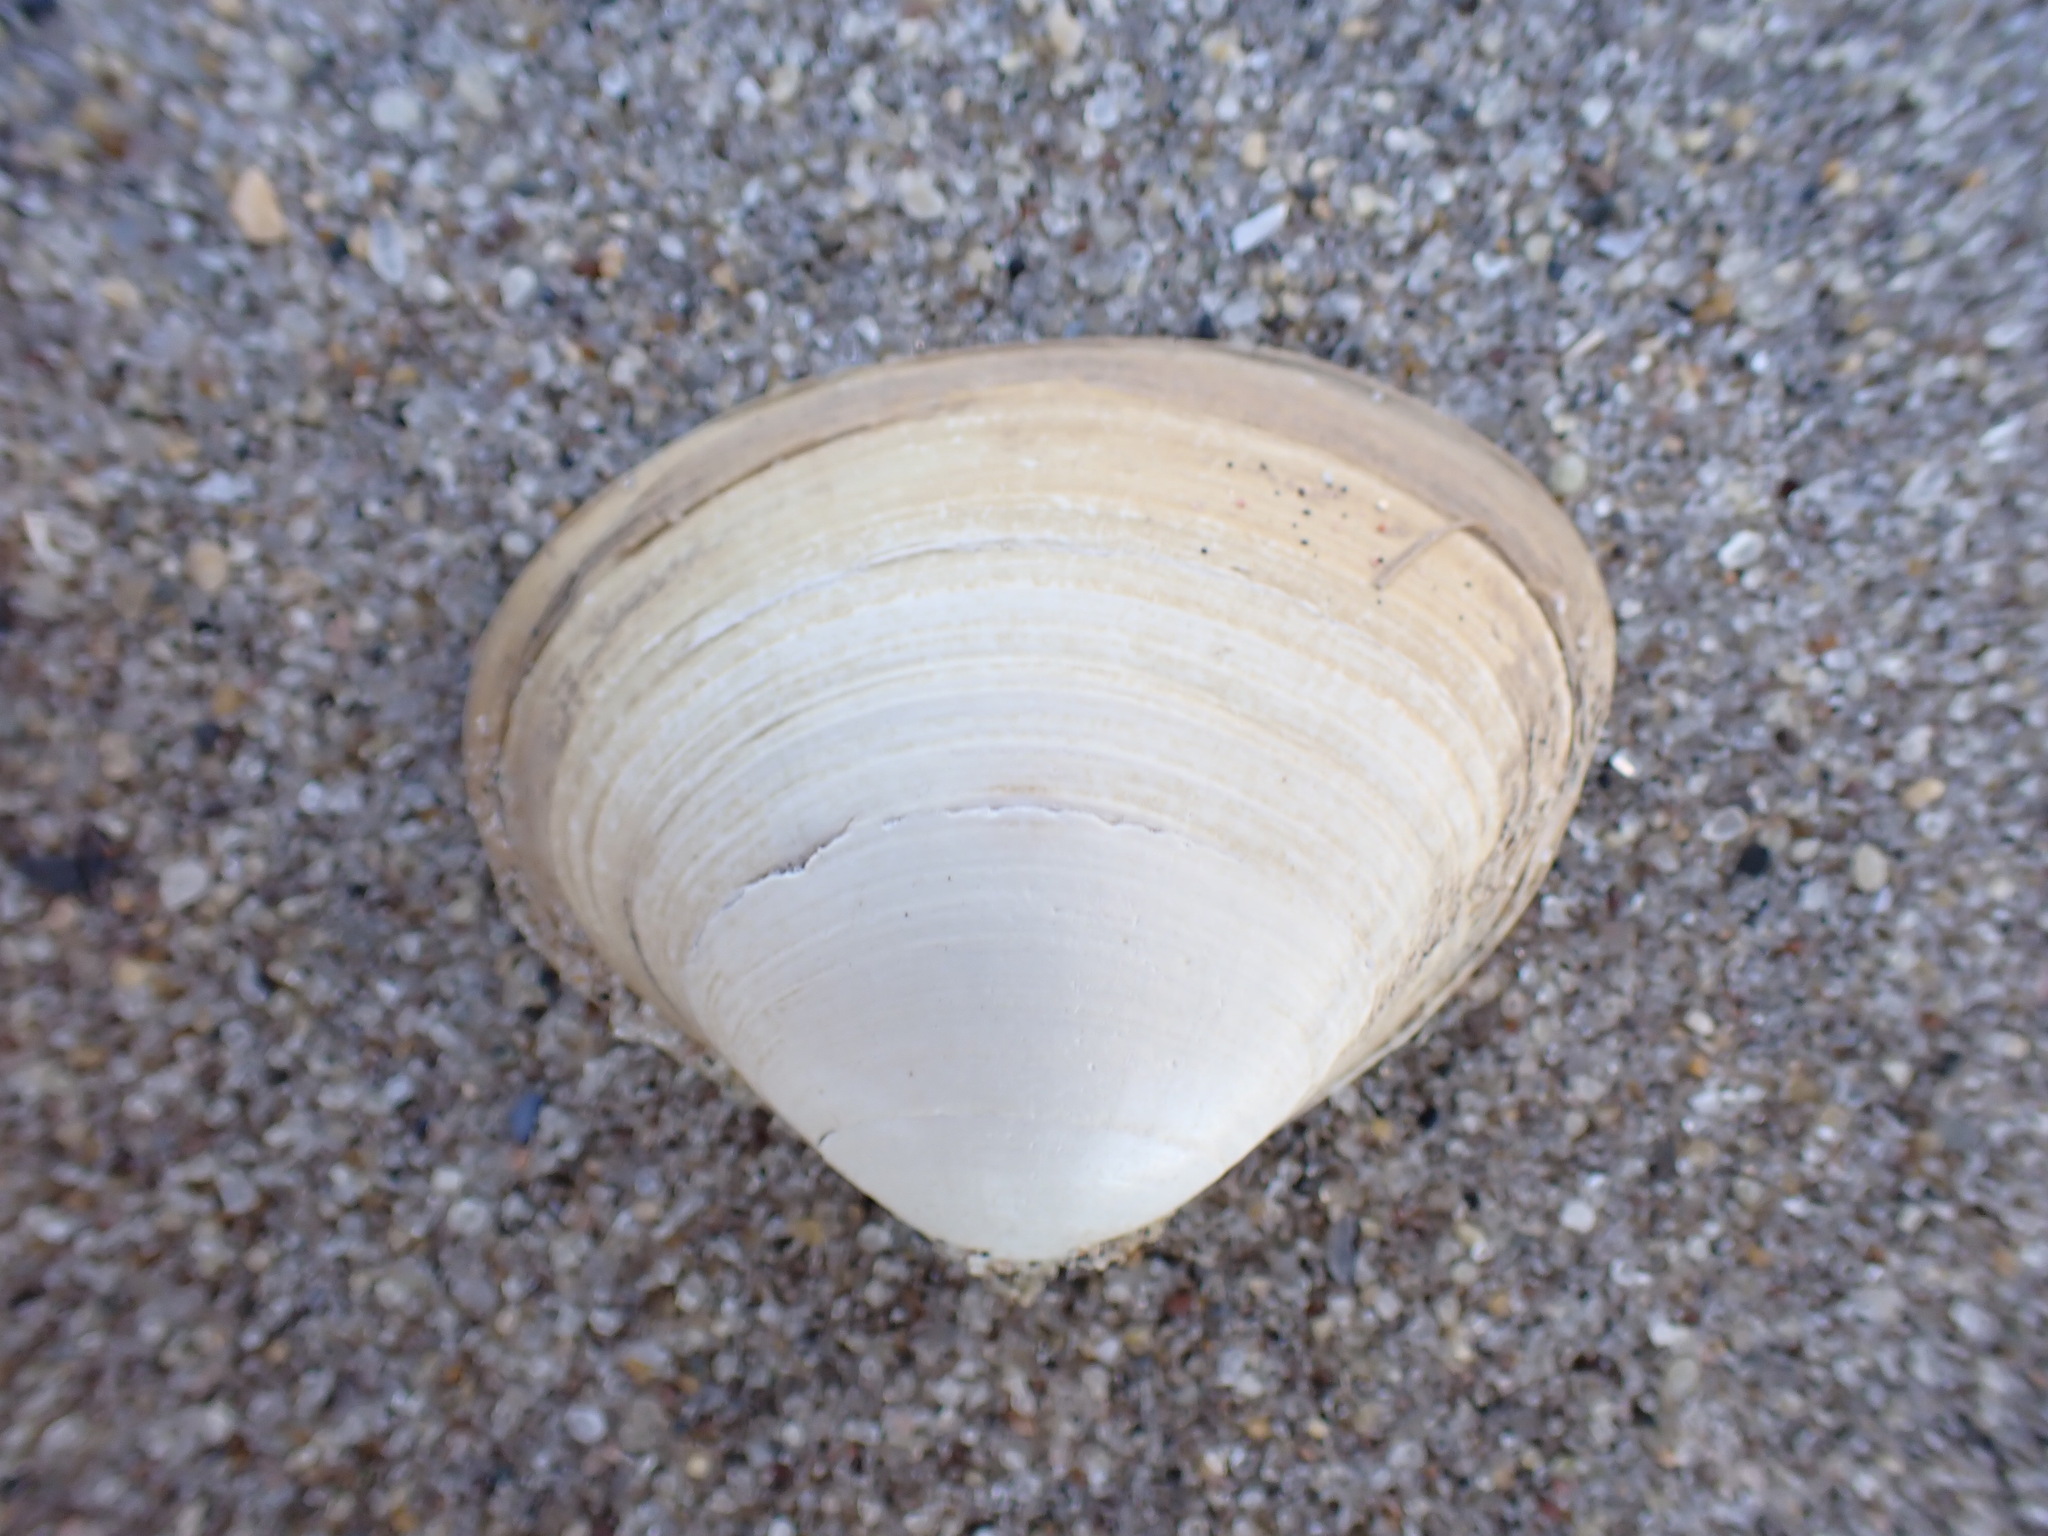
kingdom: Animalia
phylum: Mollusca
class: Bivalvia
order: Venerida
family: Mactridae
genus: Spisula
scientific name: Spisula solidissima
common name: Atlantic surf clam
